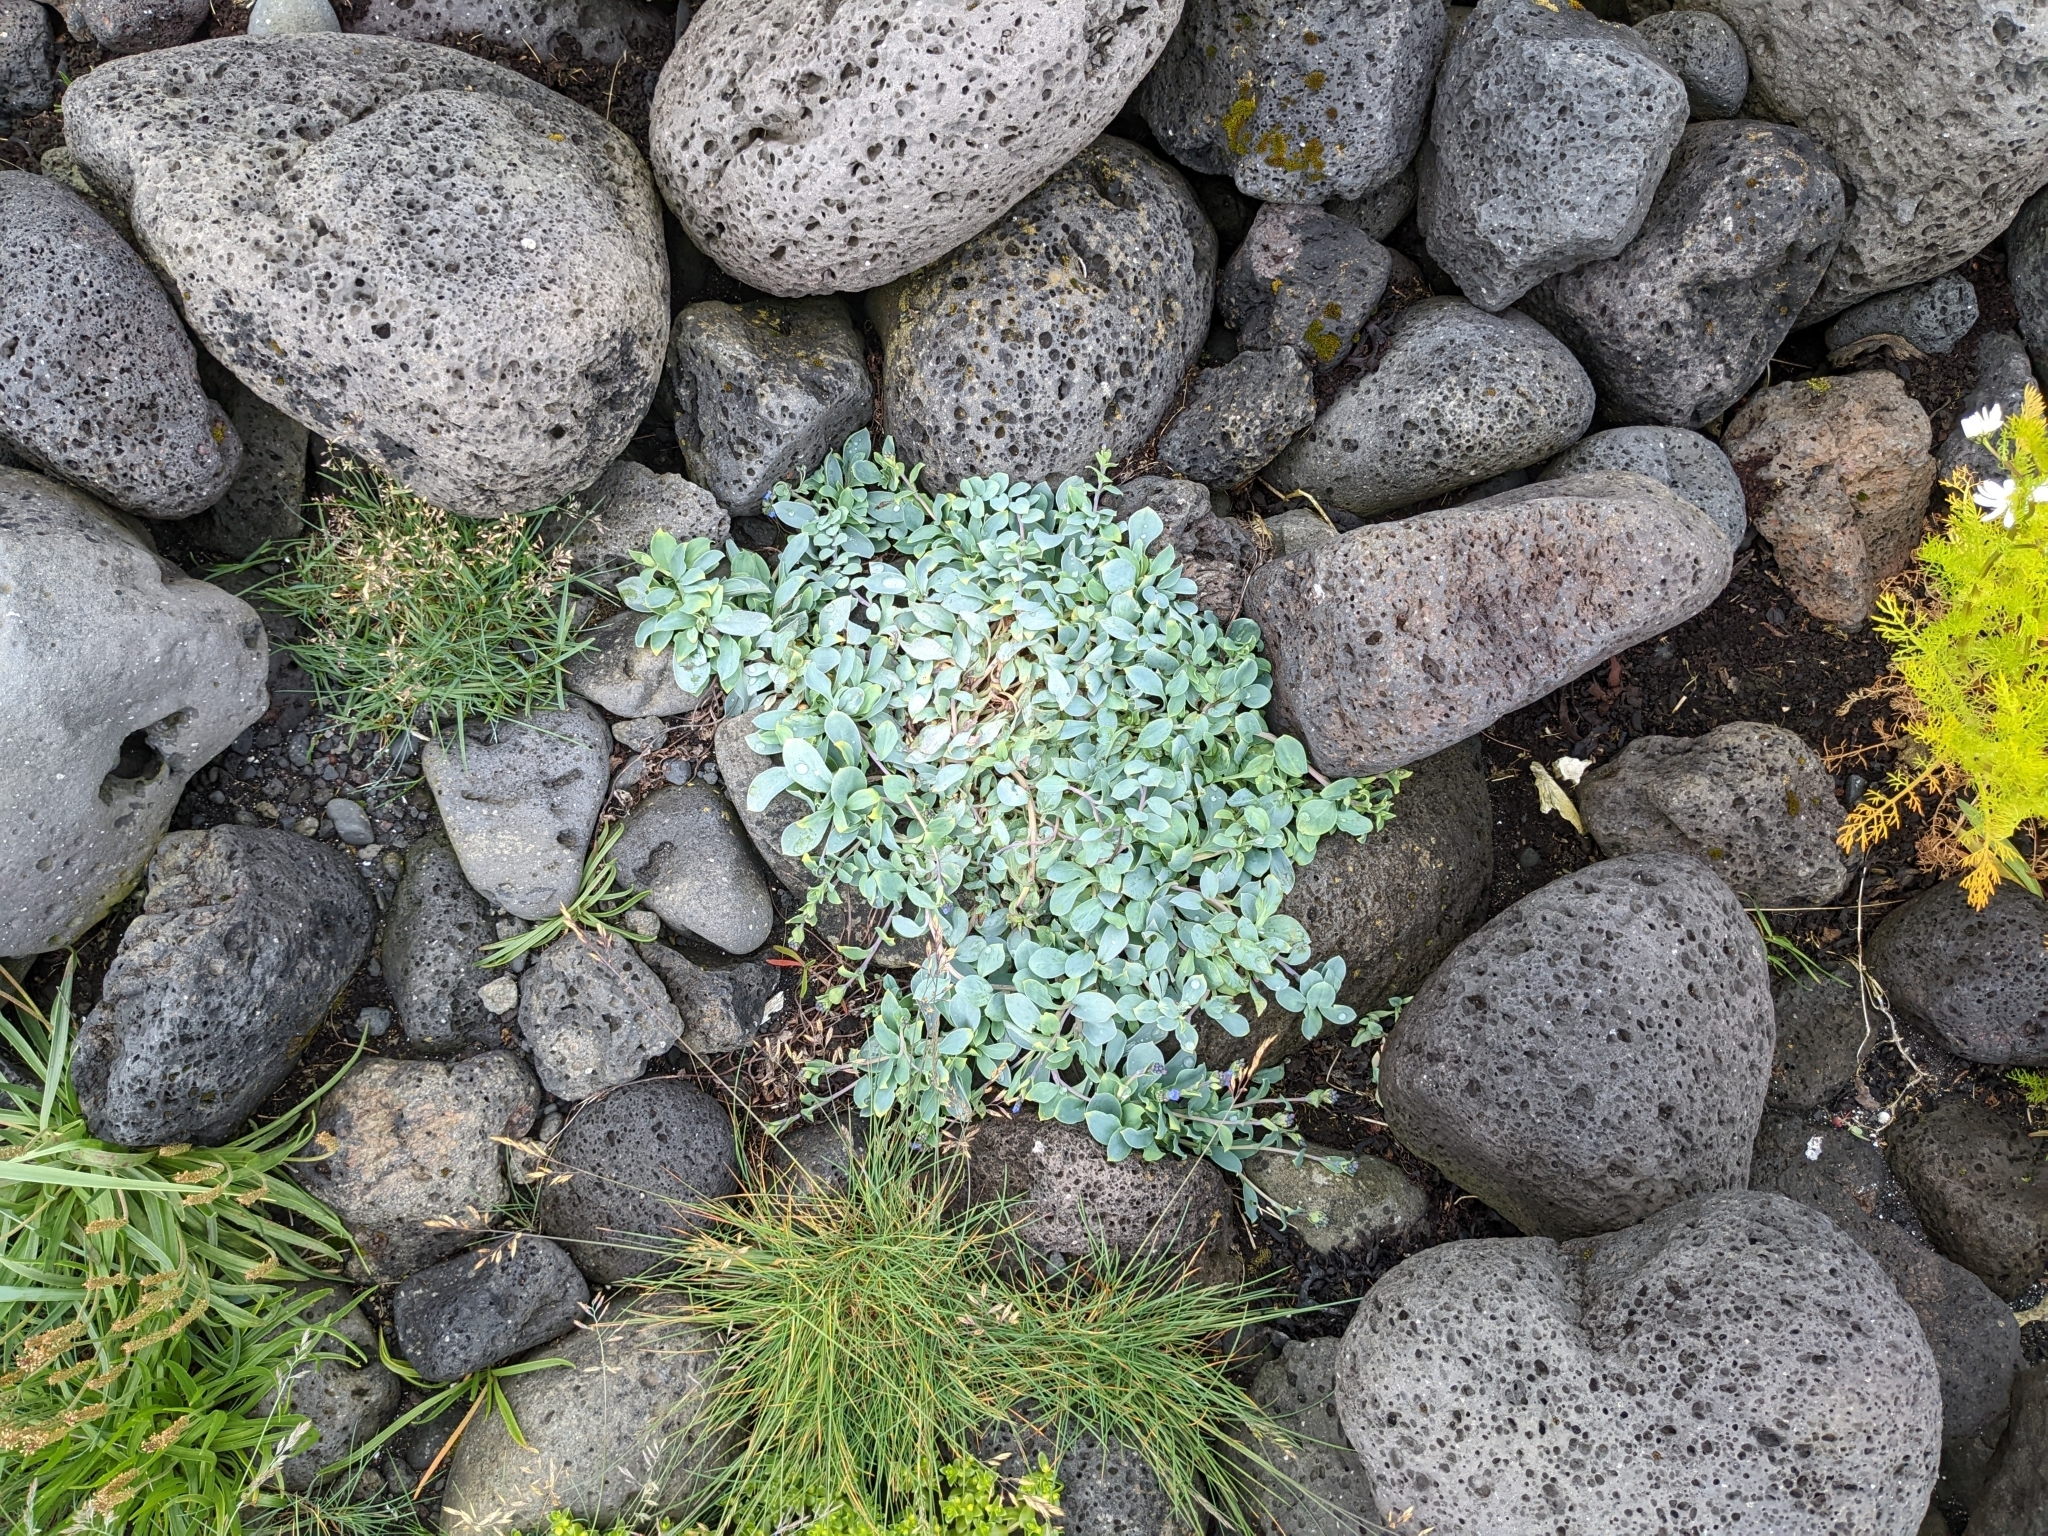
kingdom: Plantae
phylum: Tracheophyta
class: Magnoliopsida
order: Boraginales
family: Boraginaceae
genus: Mertensia
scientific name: Mertensia maritima
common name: Oysterplant
